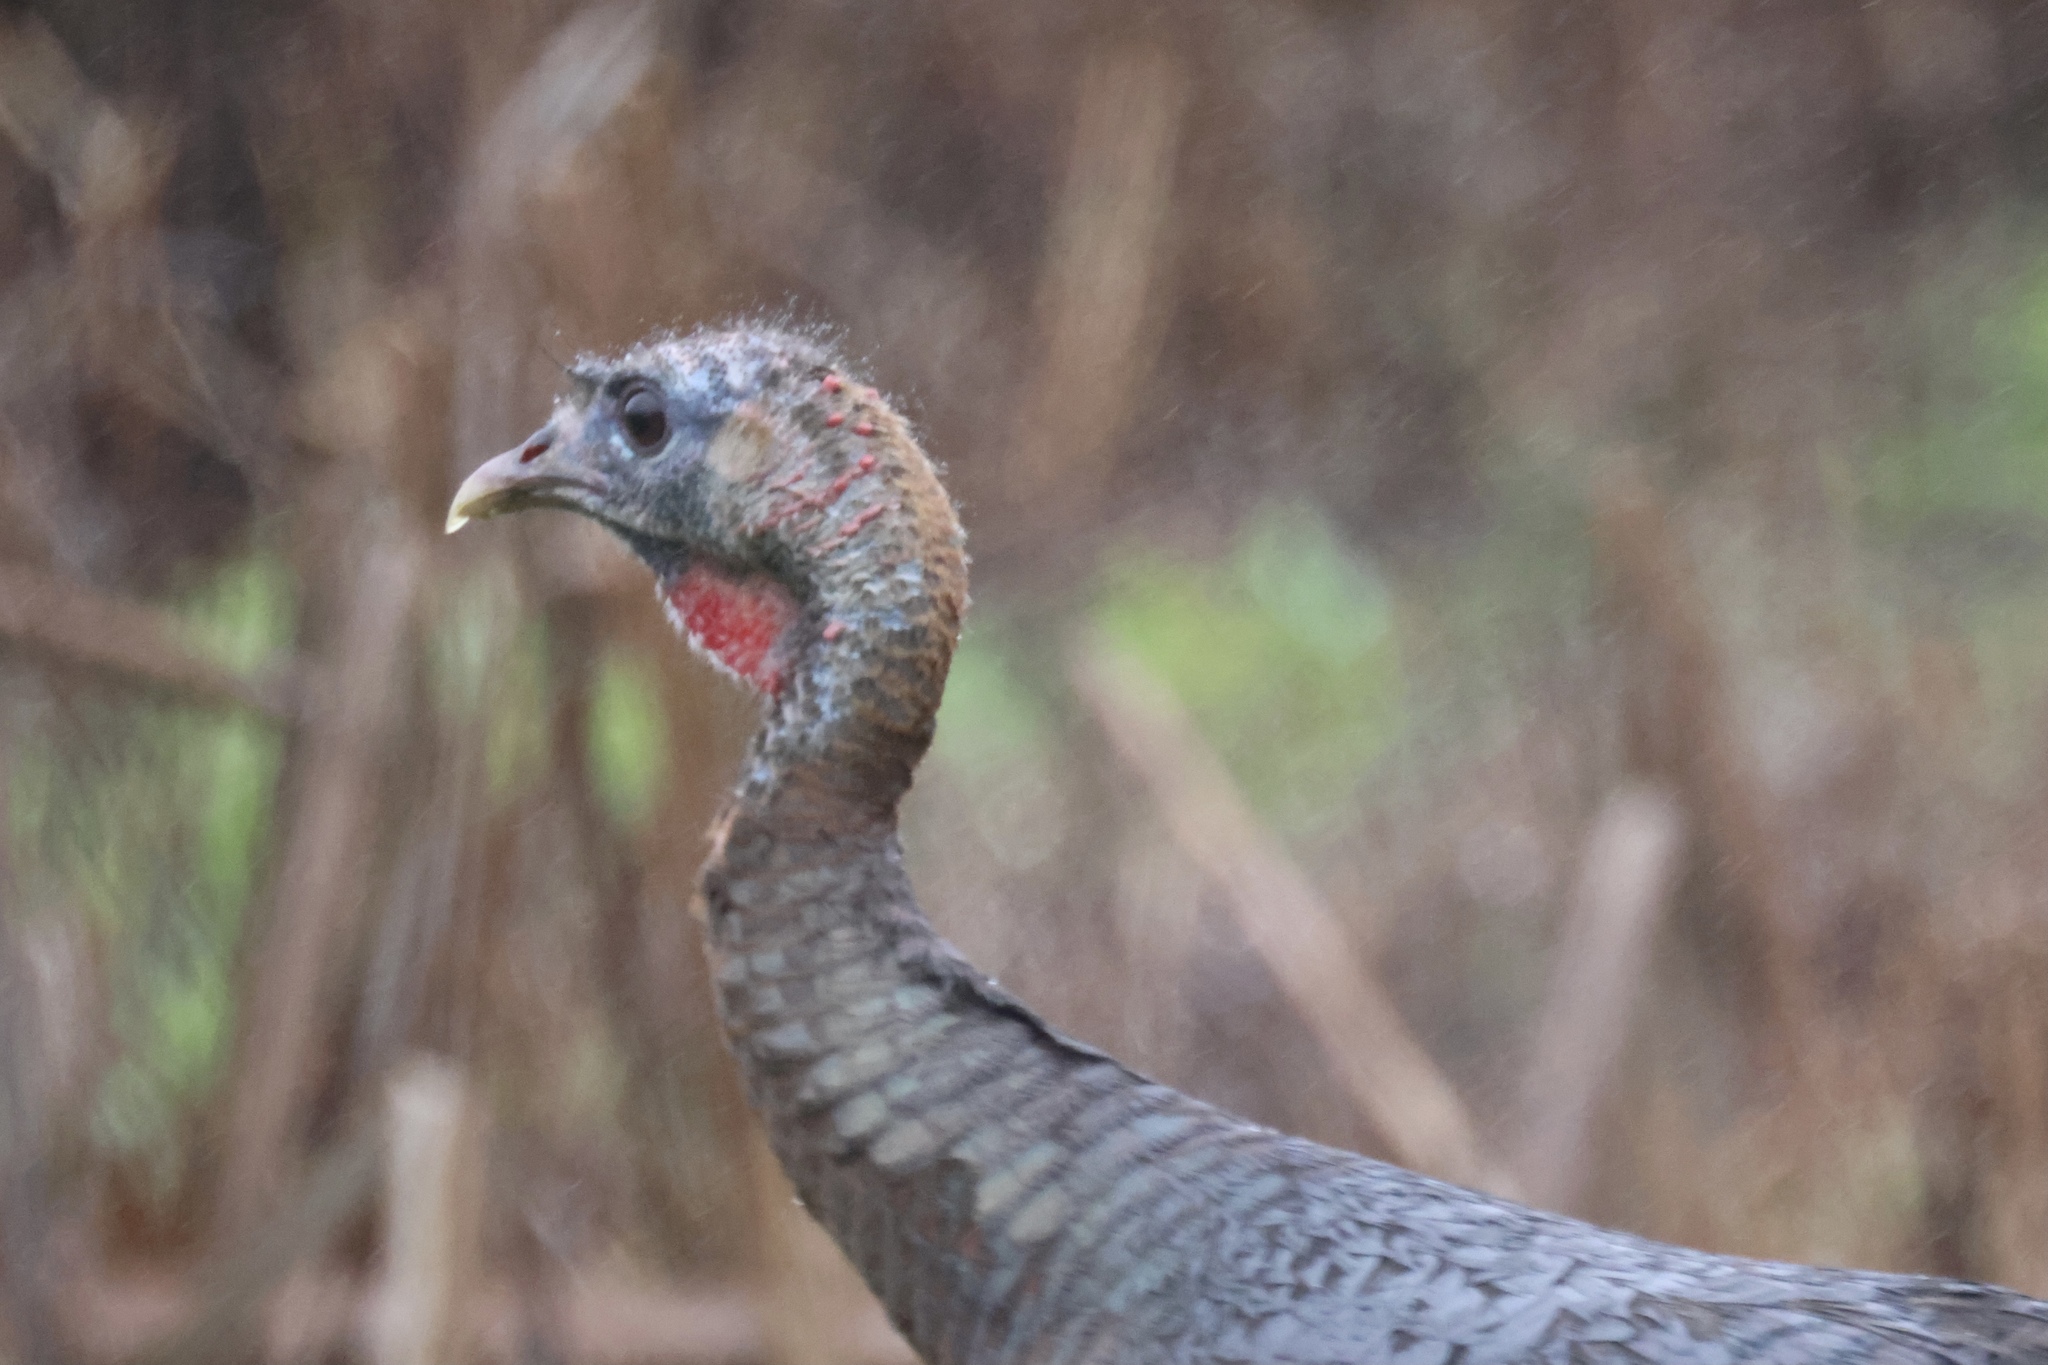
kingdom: Animalia
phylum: Chordata
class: Aves
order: Galliformes
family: Phasianidae
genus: Meleagris
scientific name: Meleagris gallopavo
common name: Wild turkey
